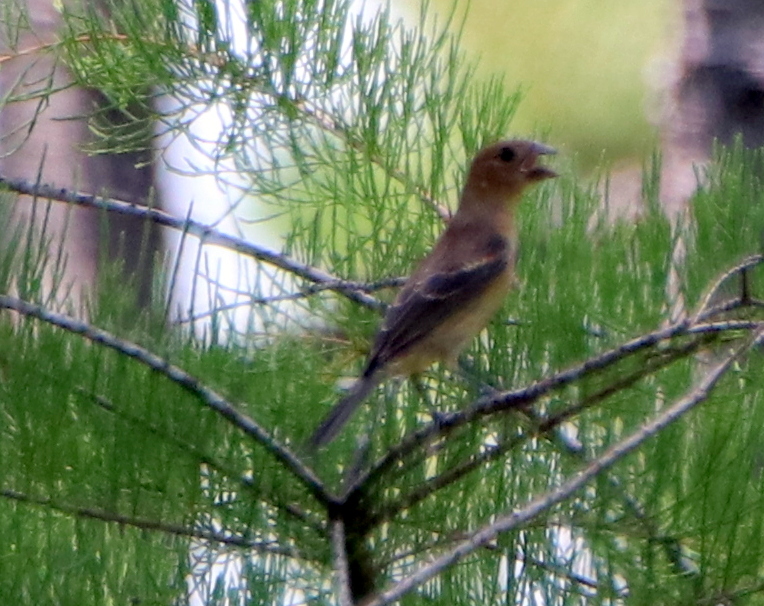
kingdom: Animalia
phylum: Chordata
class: Aves
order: Passeriformes
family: Cardinalidae
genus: Passerina
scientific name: Passerina caerulea
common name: Blue grosbeak
